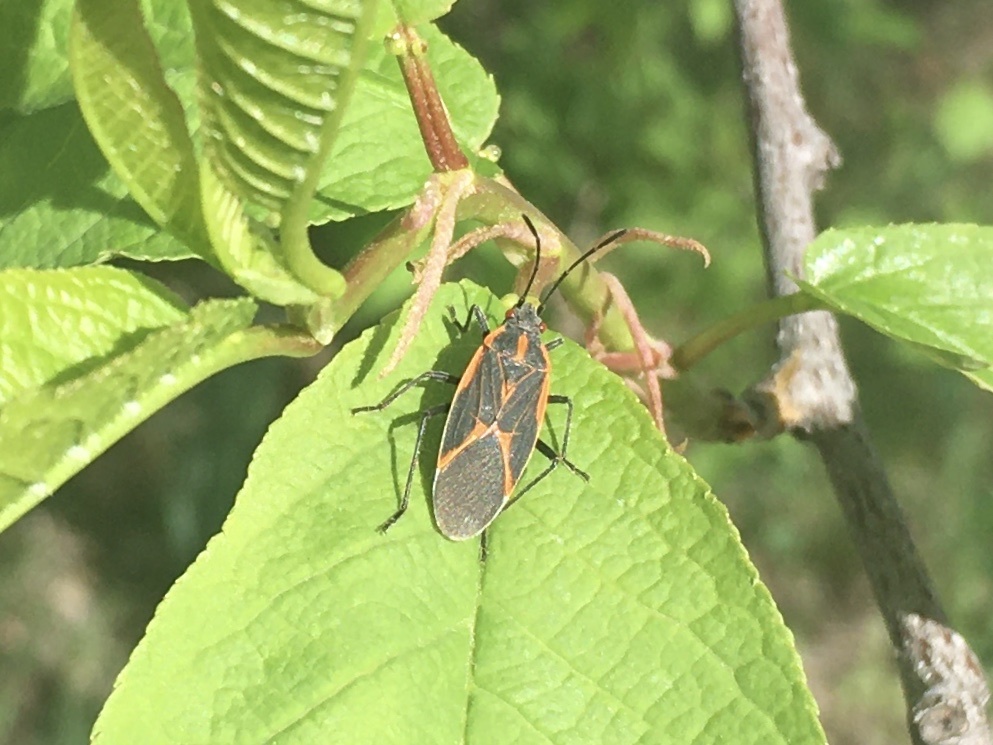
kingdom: Animalia
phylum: Arthropoda
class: Insecta
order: Hemiptera
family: Rhopalidae
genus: Boisea
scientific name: Boisea trivittata
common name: Boxelder bug
